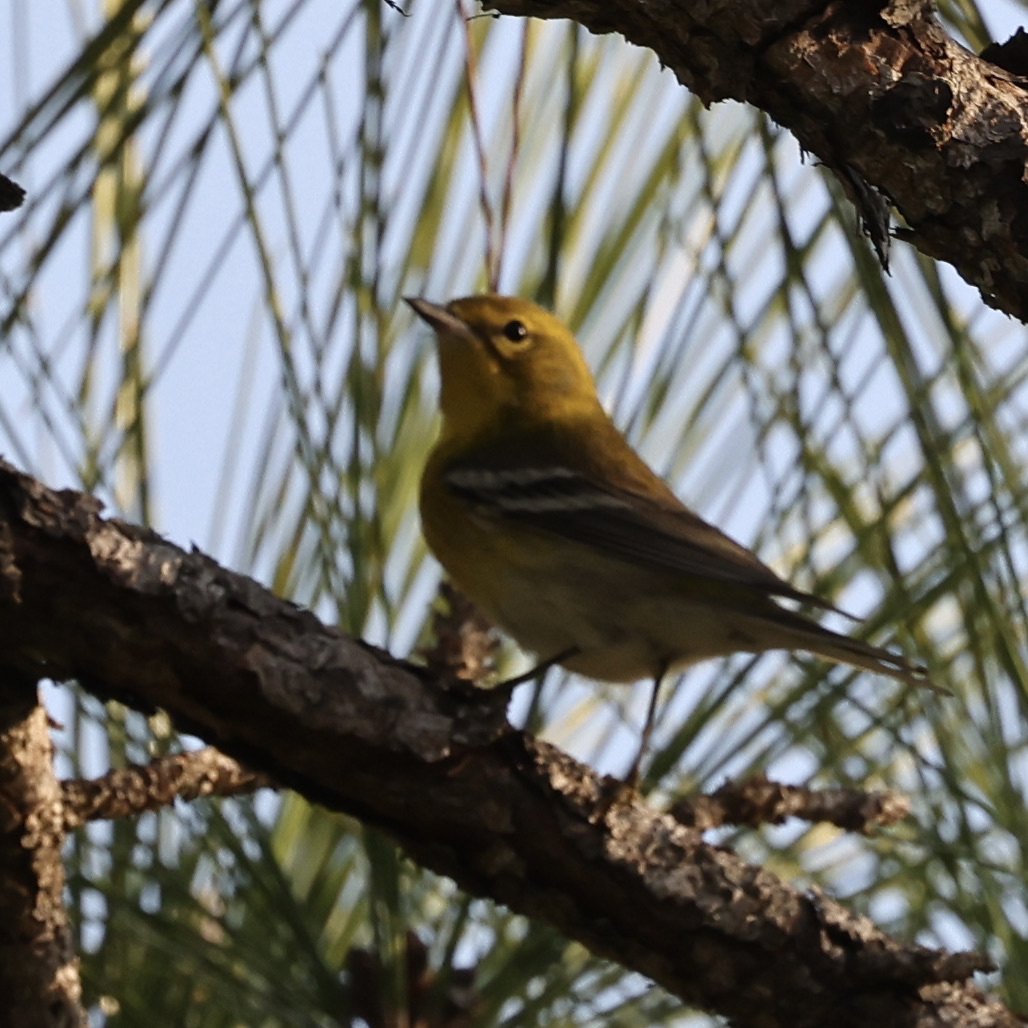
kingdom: Animalia
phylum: Chordata
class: Aves
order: Passeriformes
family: Parulidae
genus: Setophaga
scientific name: Setophaga pinus
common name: Pine warbler
